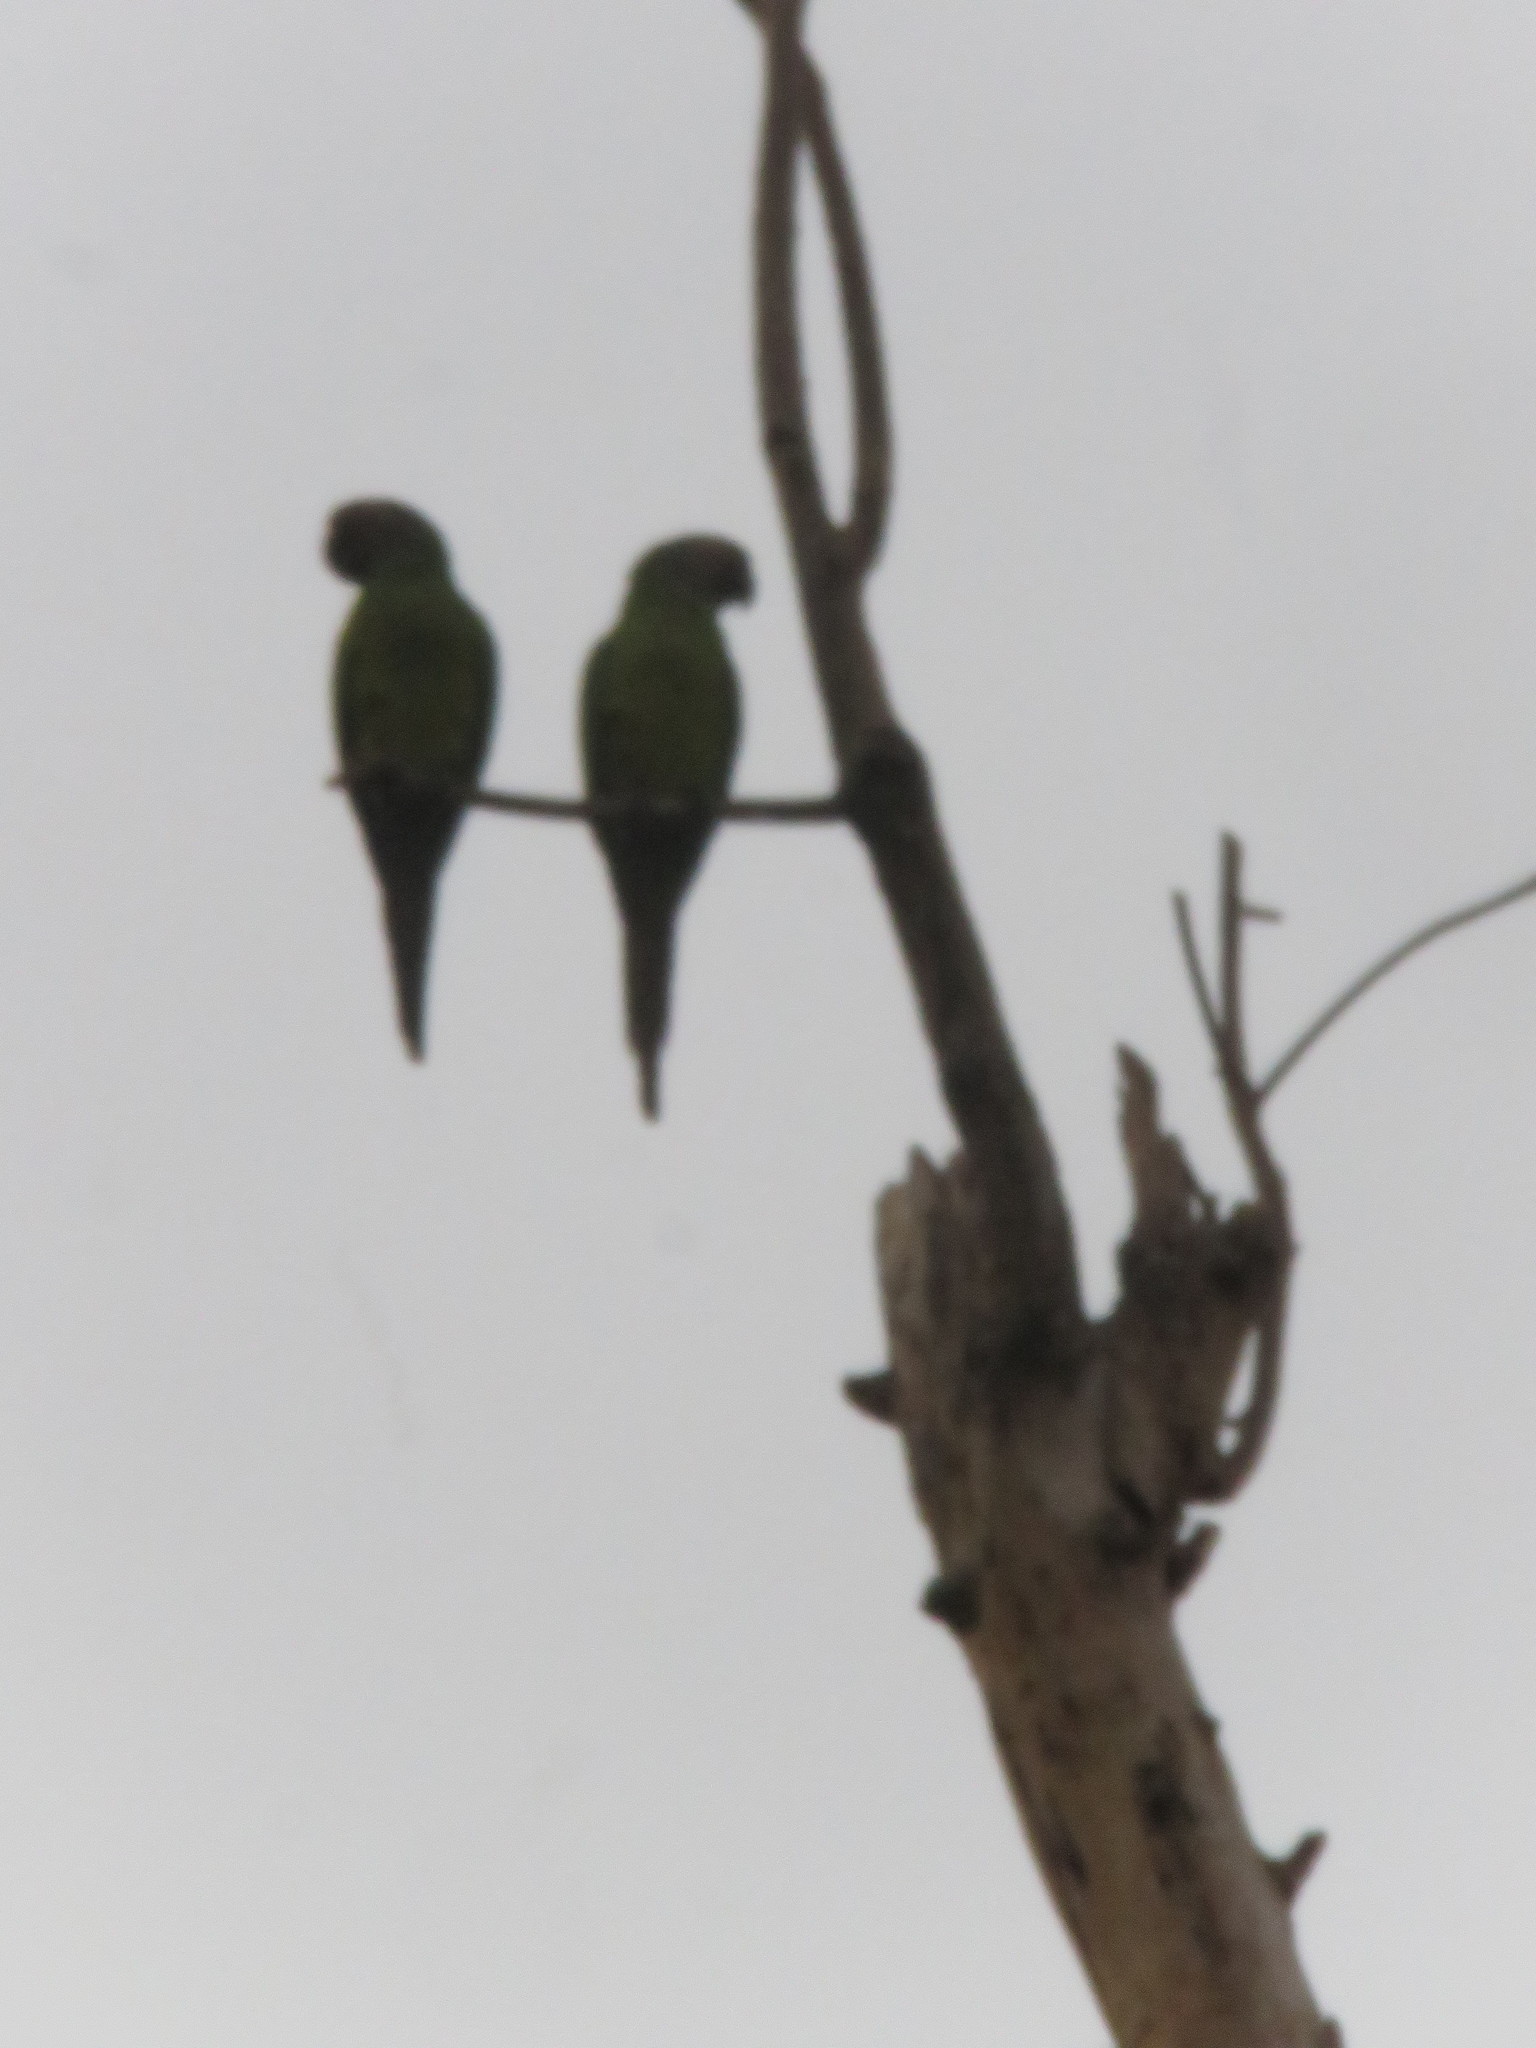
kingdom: Animalia
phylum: Chordata
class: Aves
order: Psittaciformes
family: Psittacidae
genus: Aratinga
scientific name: Aratinga weddellii
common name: Dusky-headed parakeet
